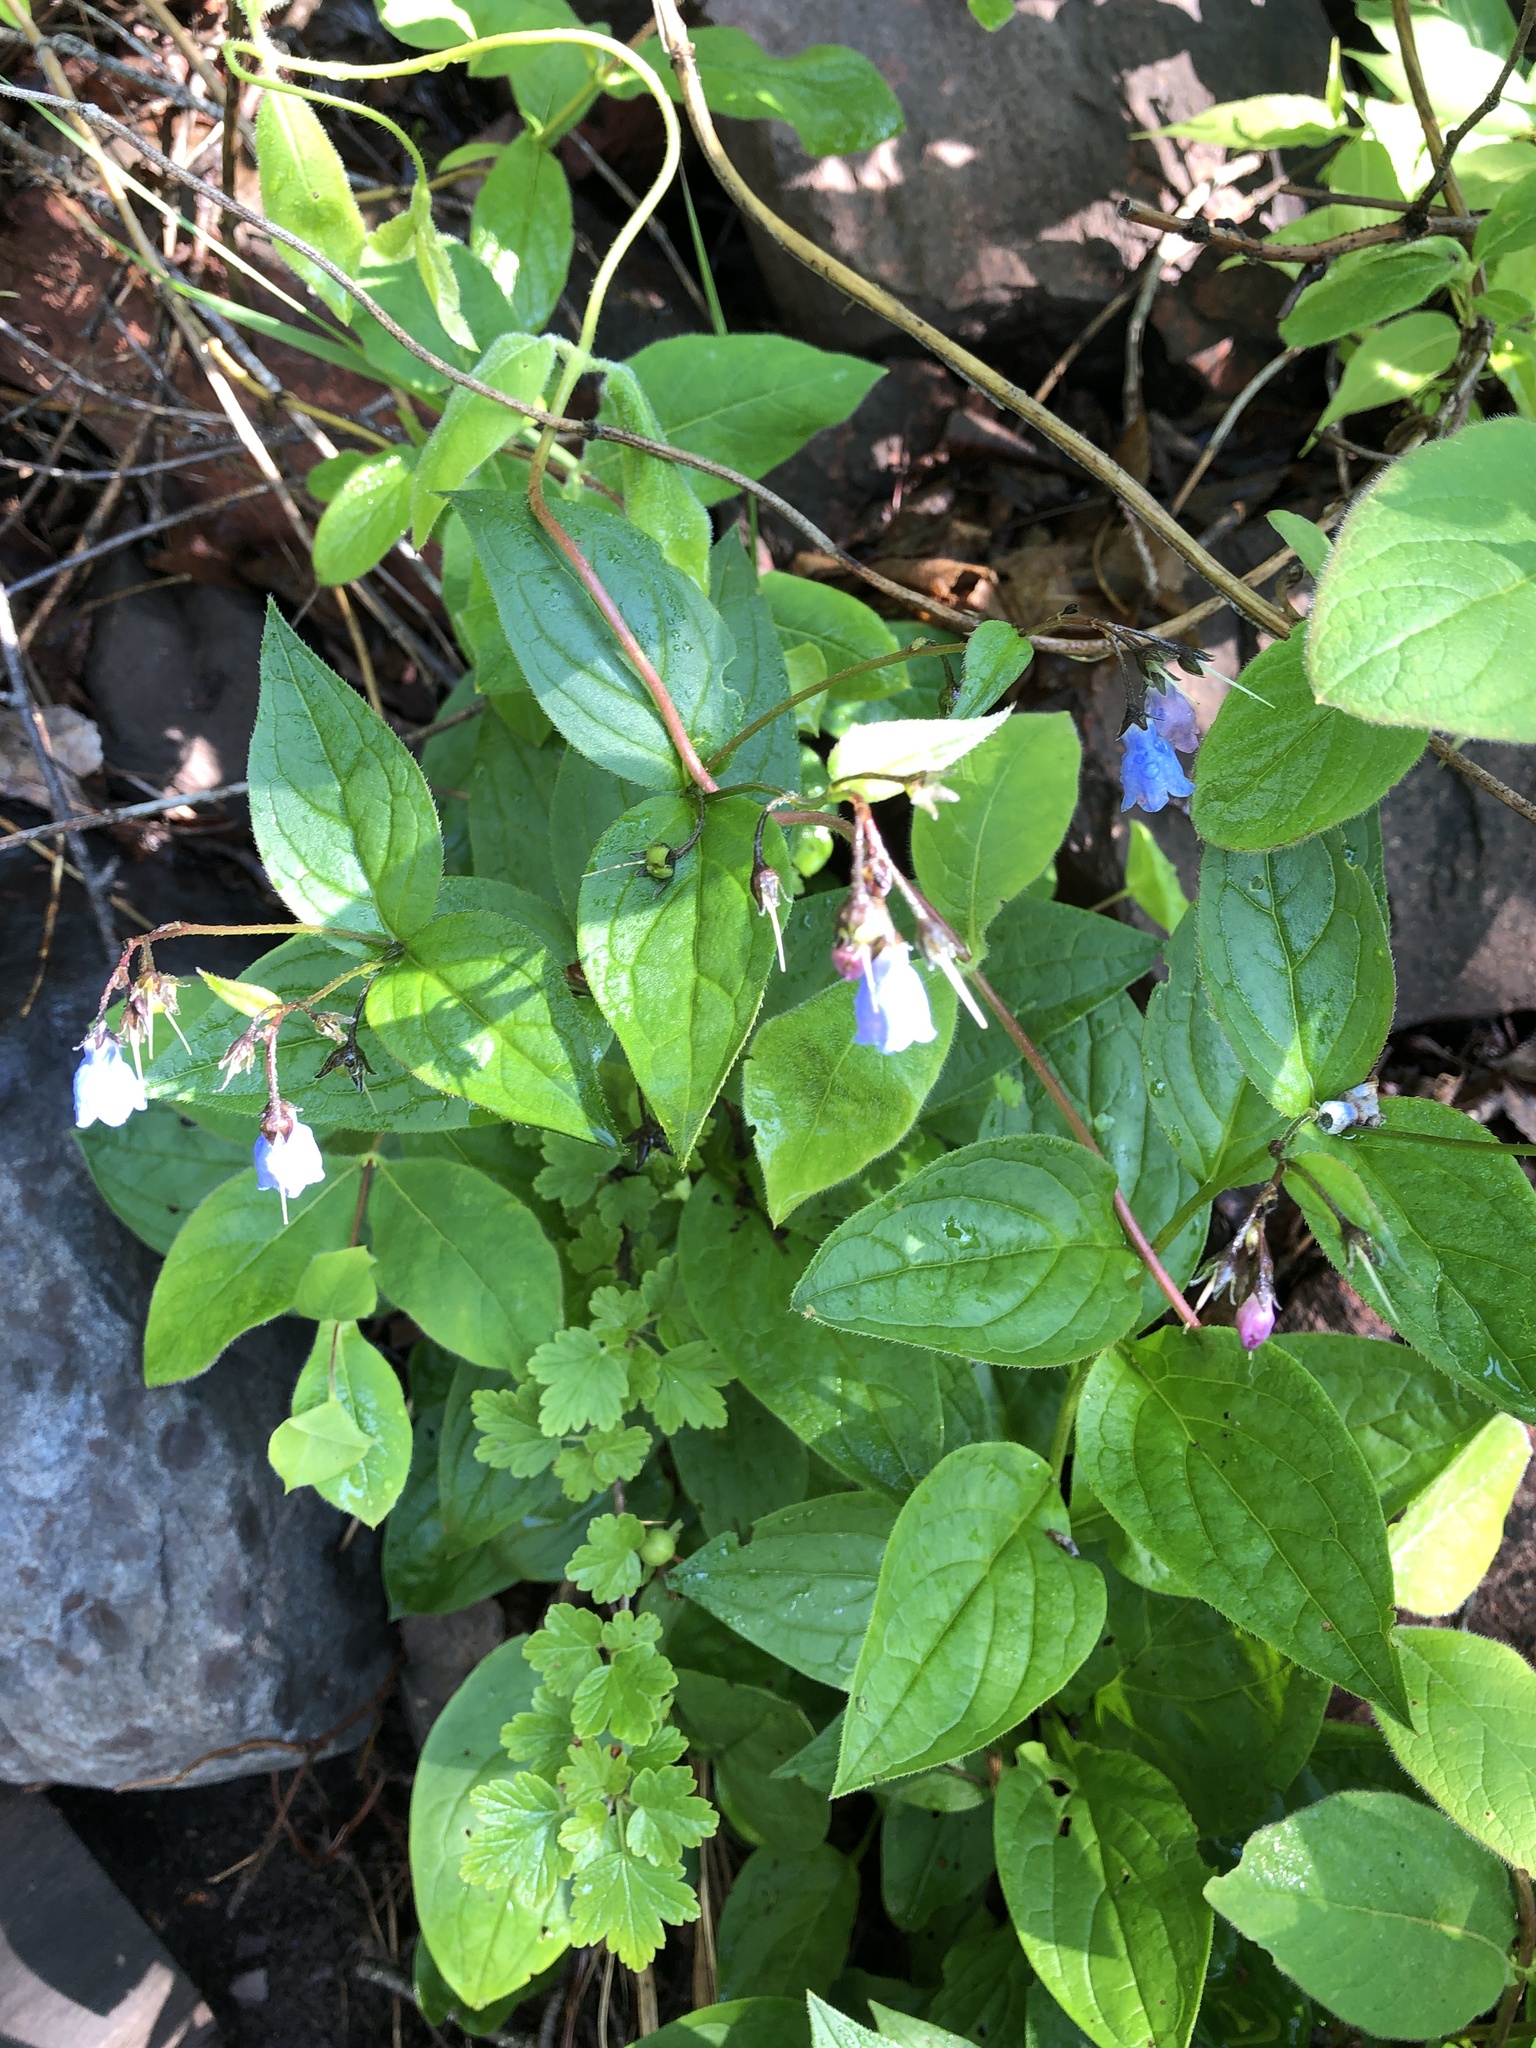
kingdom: Plantae
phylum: Tracheophyta
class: Magnoliopsida
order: Boraginales
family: Boraginaceae
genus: Mertensia
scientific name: Mertensia paniculata
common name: Panicled bluebells
